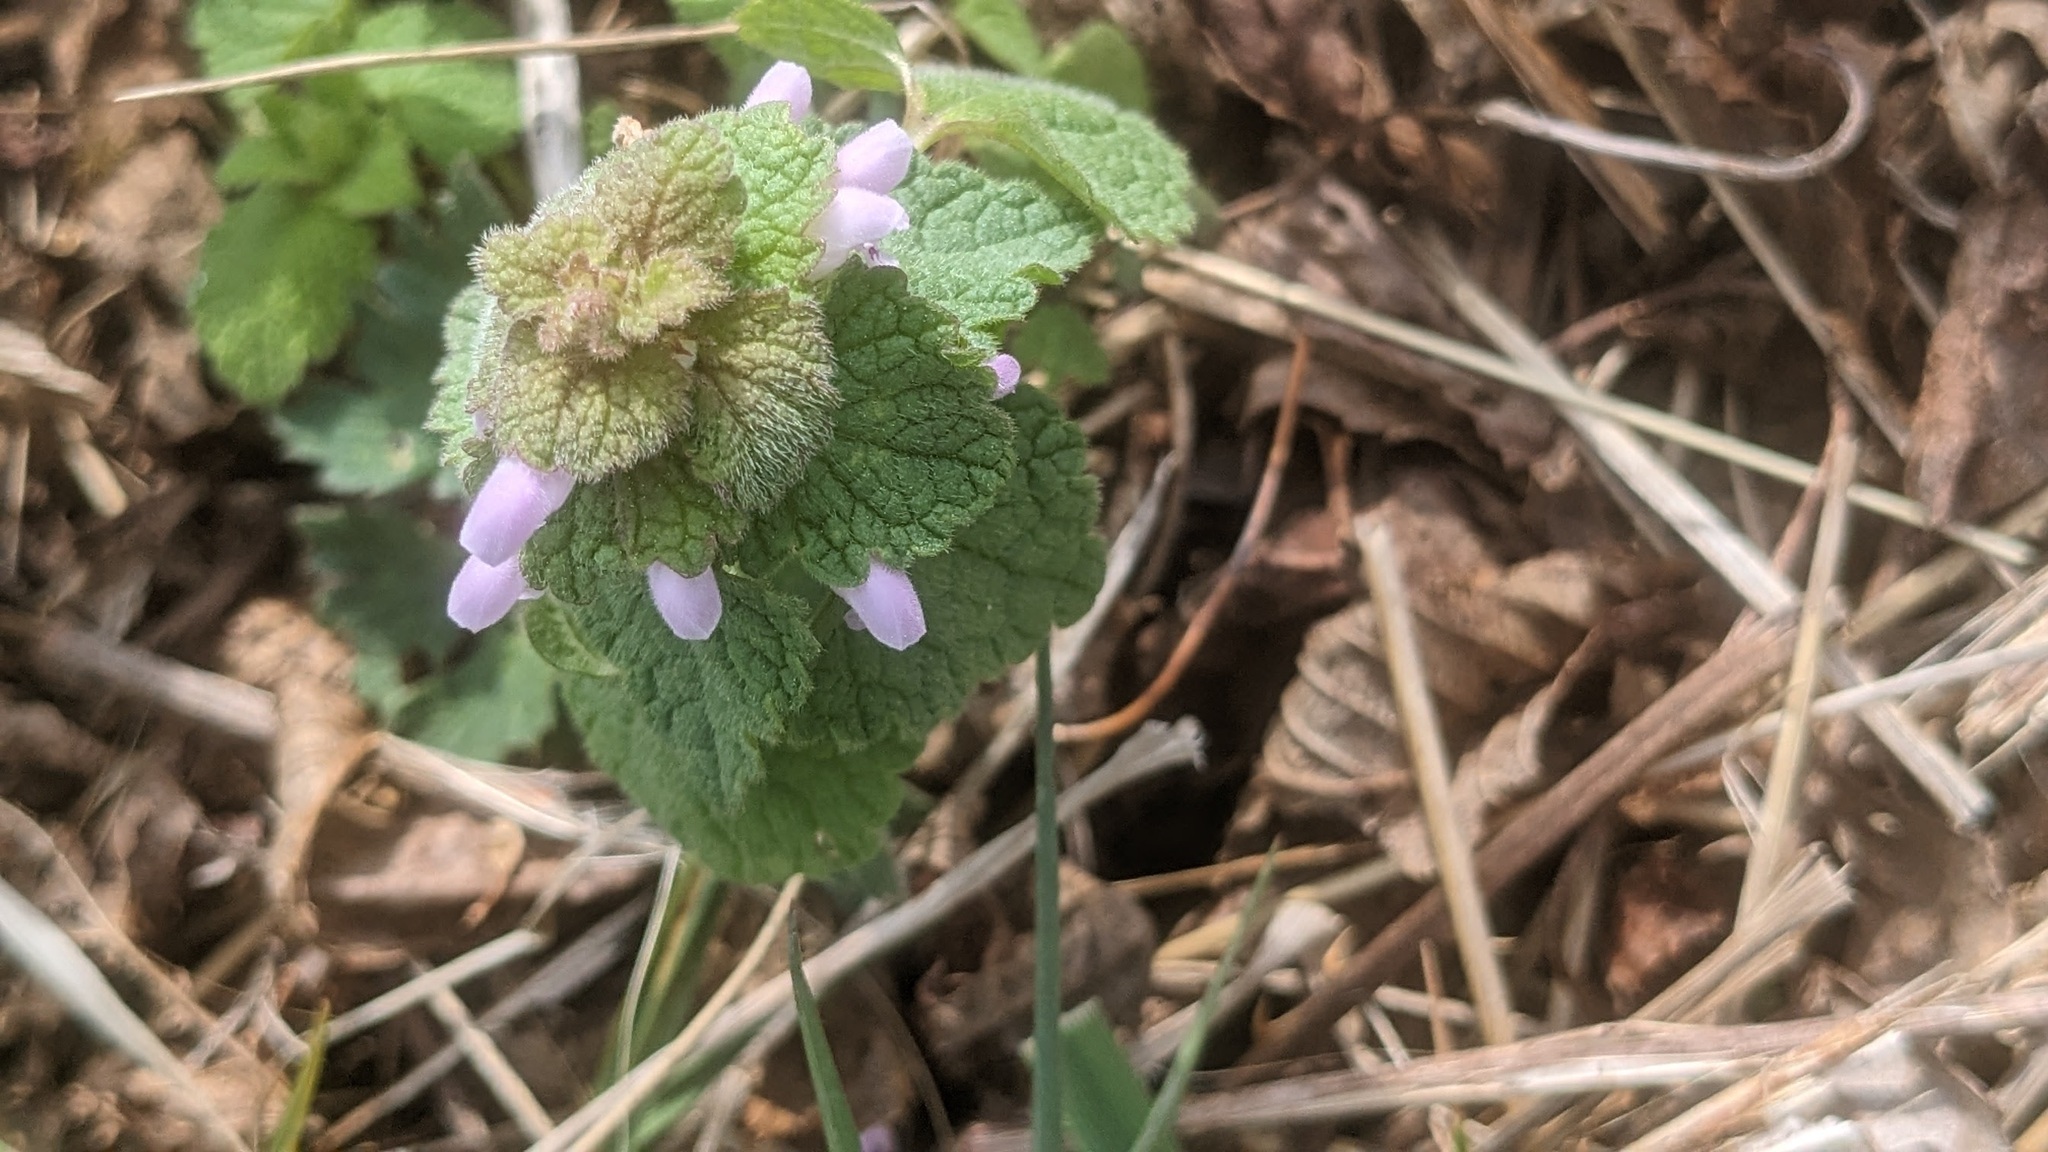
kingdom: Plantae
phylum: Tracheophyta
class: Magnoliopsida
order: Lamiales
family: Lamiaceae
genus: Lamium
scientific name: Lamium purpureum
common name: Red dead-nettle
